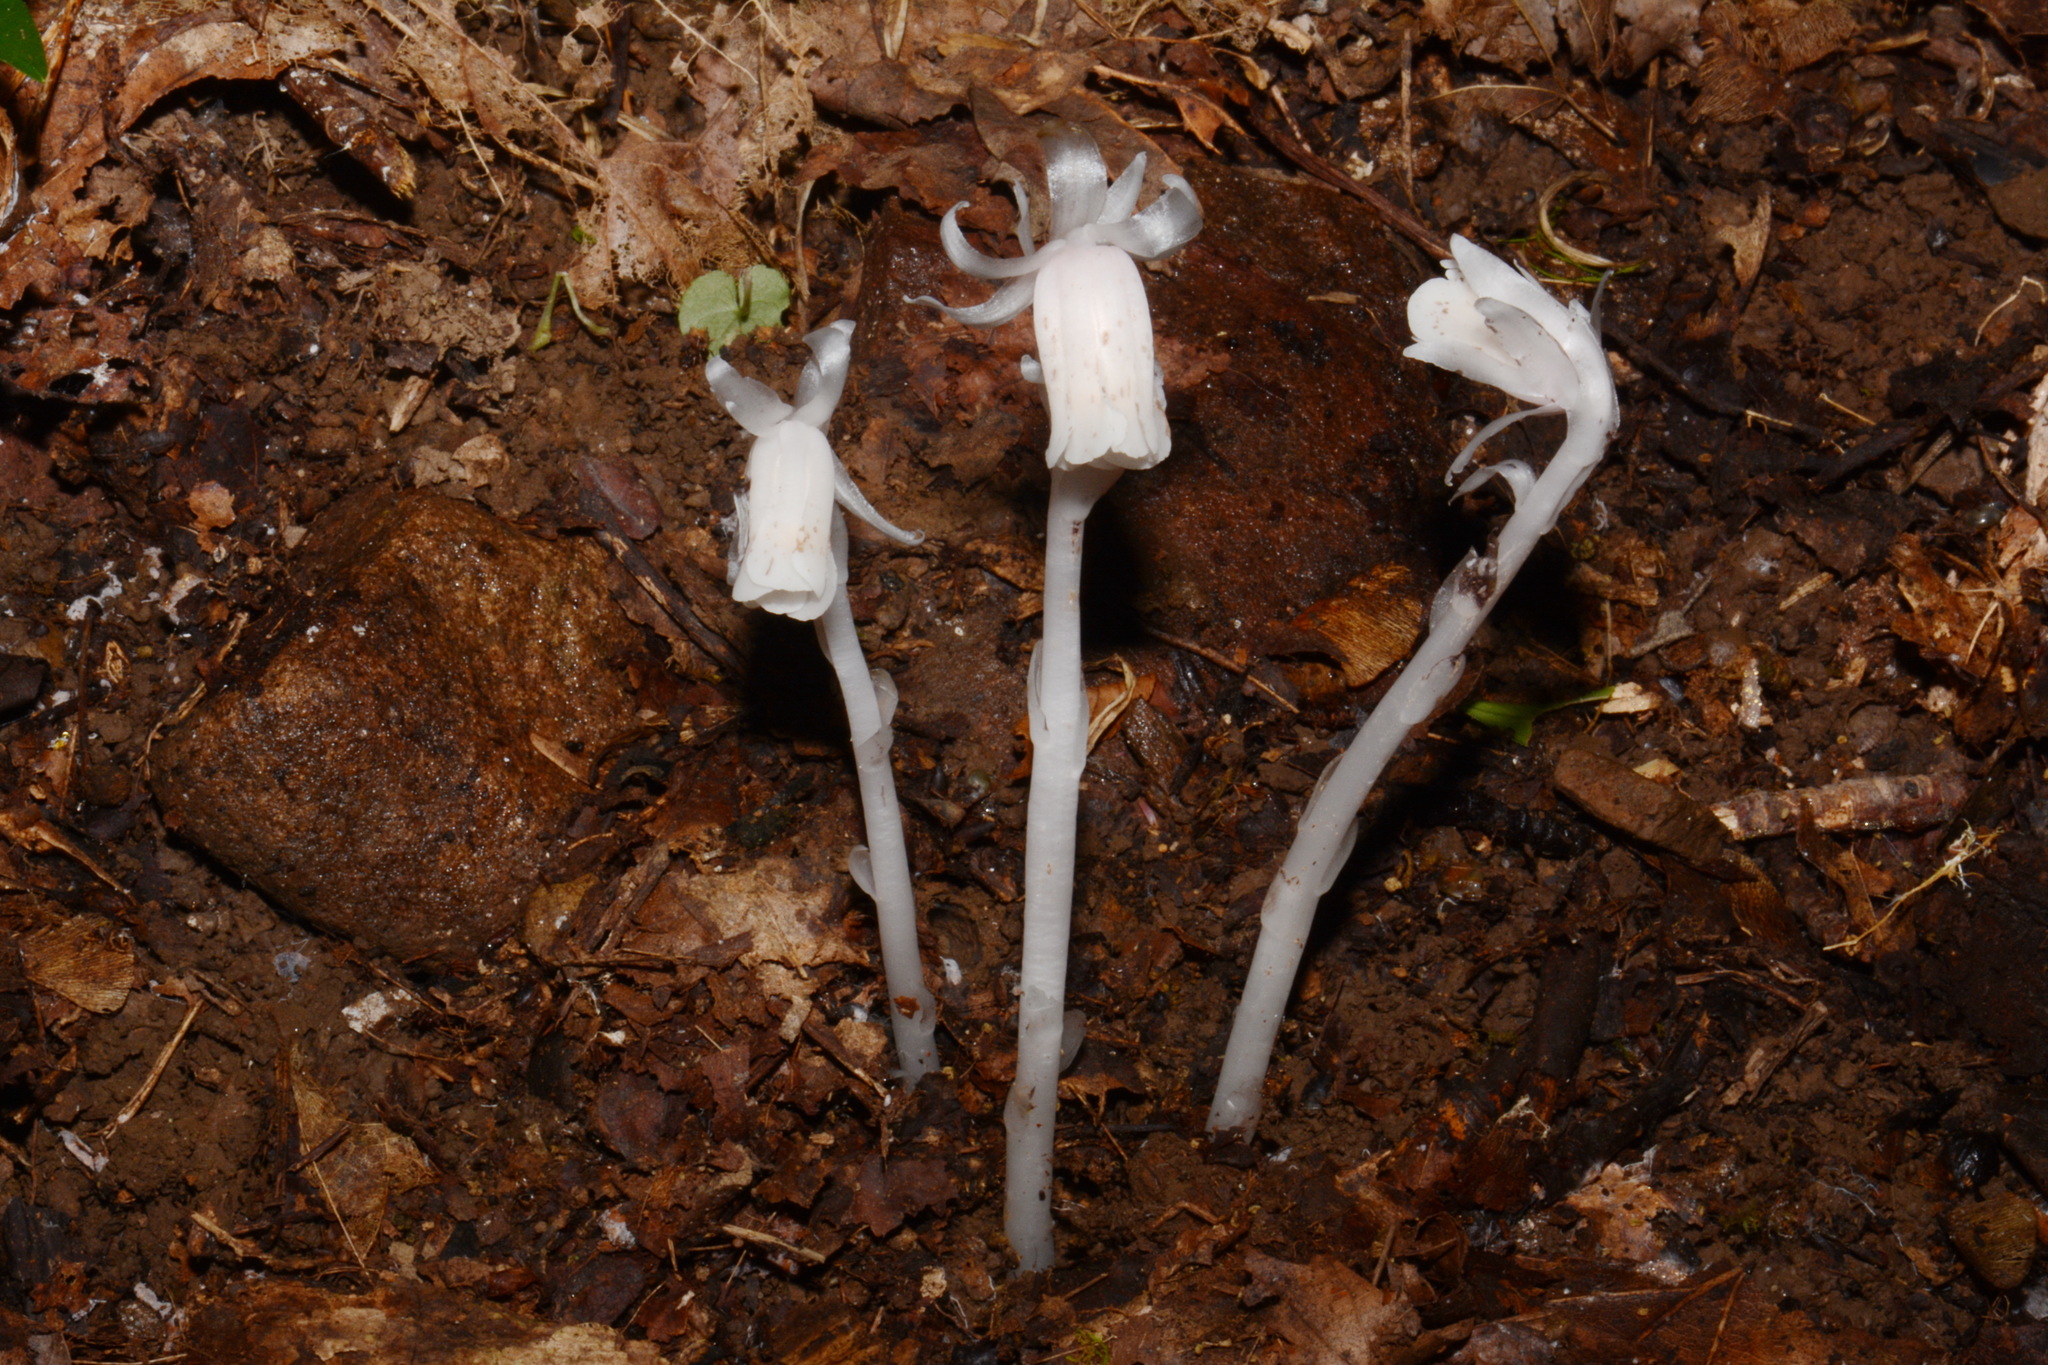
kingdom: Plantae
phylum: Tracheophyta
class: Magnoliopsida
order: Ericales
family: Ericaceae
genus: Monotropa
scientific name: Monotropa uniflora
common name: Convulsion root
